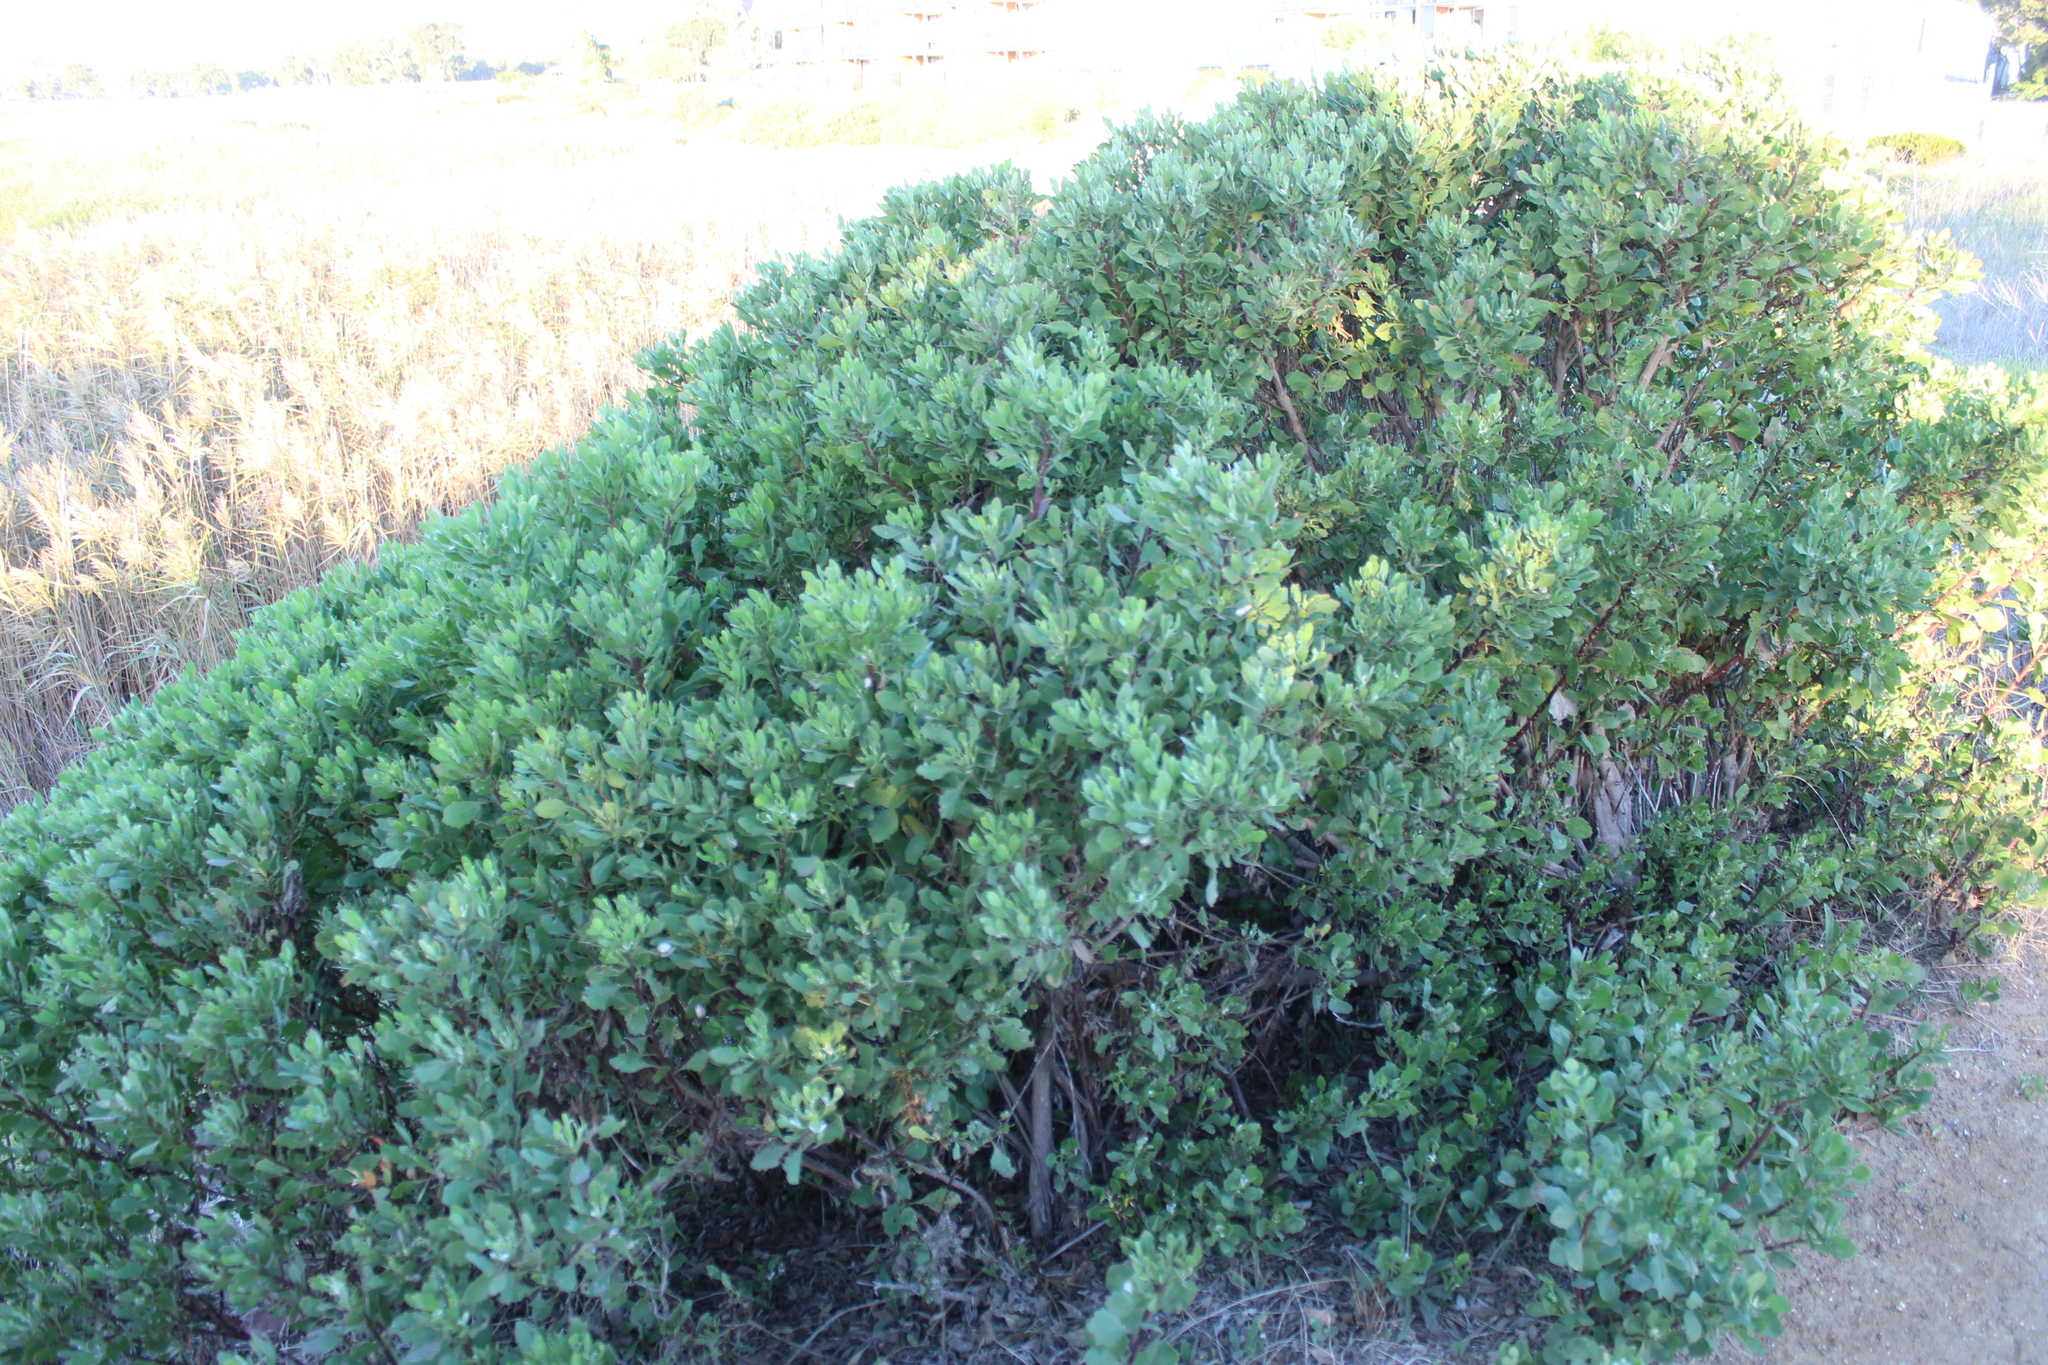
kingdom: Plantae
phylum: Tracheophyta
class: Magnoliopsida
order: Asterales
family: Asteraceae
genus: Osteospermum
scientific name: Osteospermum moniliferum
